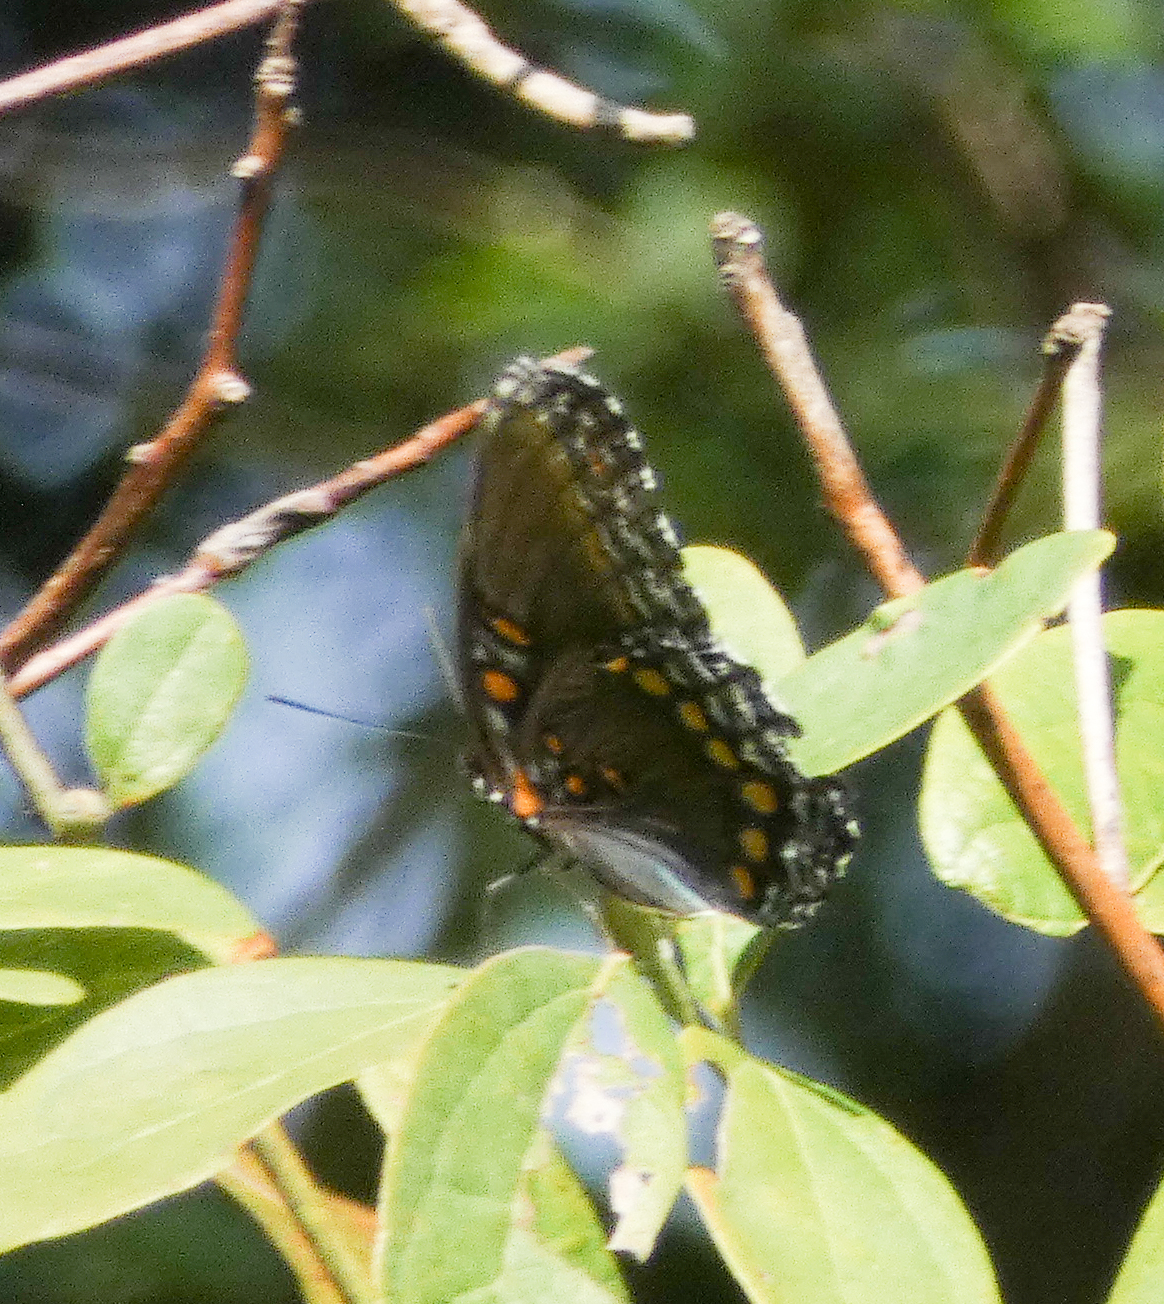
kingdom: Animalia
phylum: Arthropoda
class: Insecta
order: Lepidoptera
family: Nymphalidae
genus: Limenitis
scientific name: Limenitis astyanax
